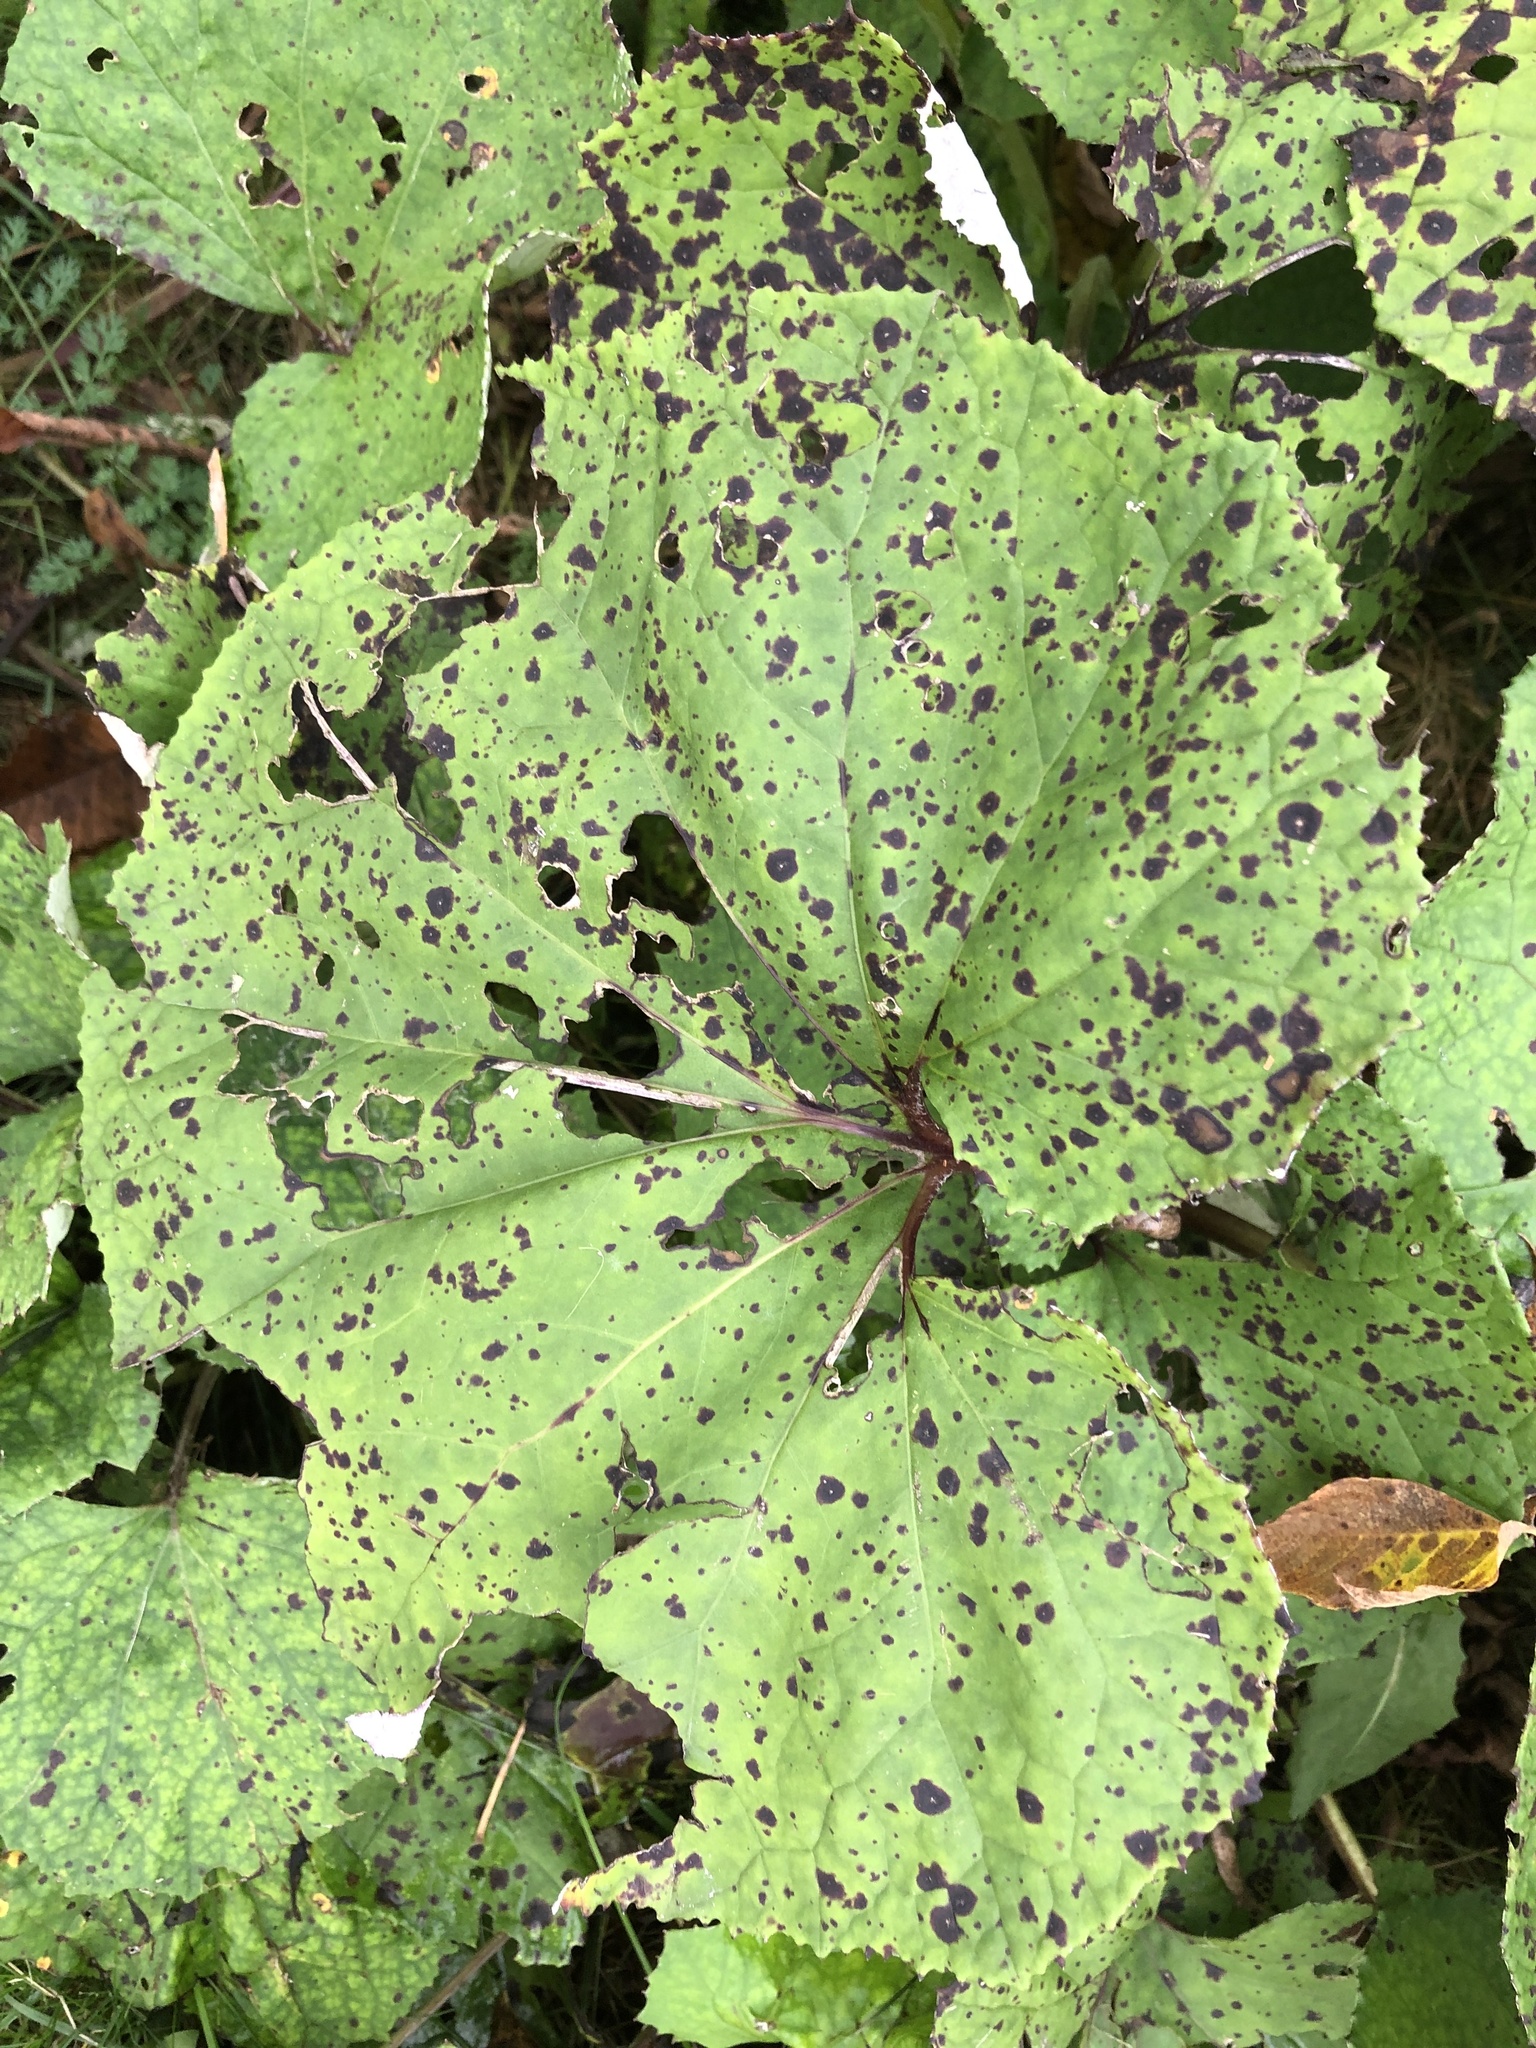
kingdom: Plantae
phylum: Tracheophyta
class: Magnoliopsida
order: Asterales
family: Asteraceae
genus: Petasites
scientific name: Petasites hybridus
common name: Butterbur
